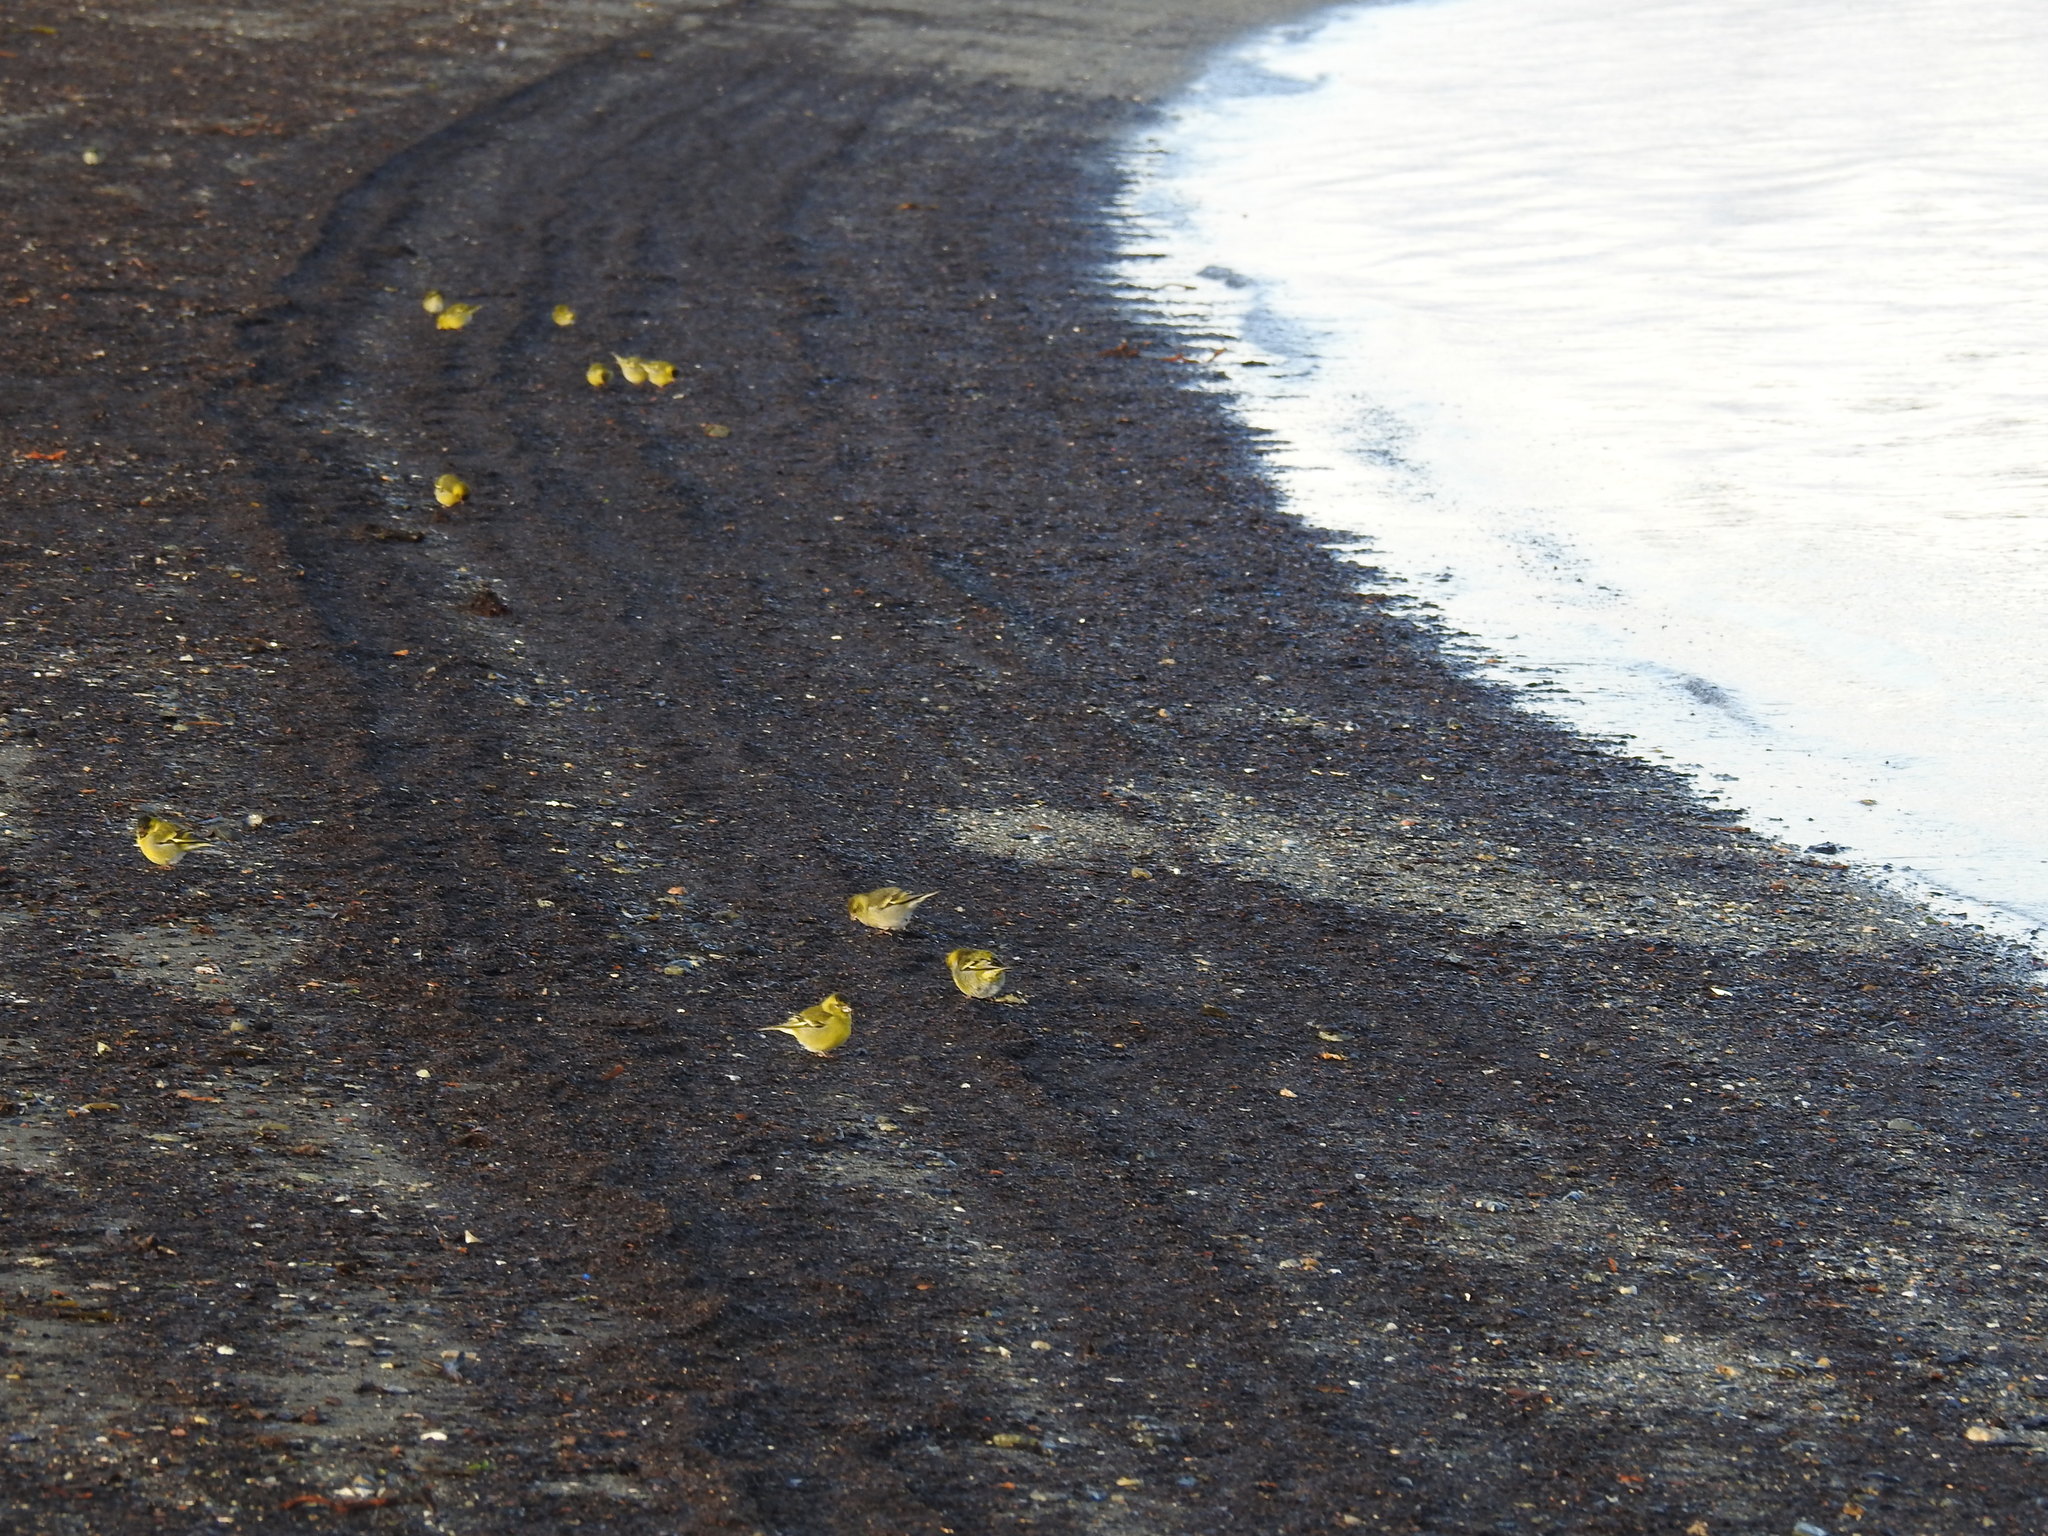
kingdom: Animalia
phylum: Chordata
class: Aves
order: Passeriformes
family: Fringillidae
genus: Spinus
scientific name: Spinus barbatus
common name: Black-chinned siskin
